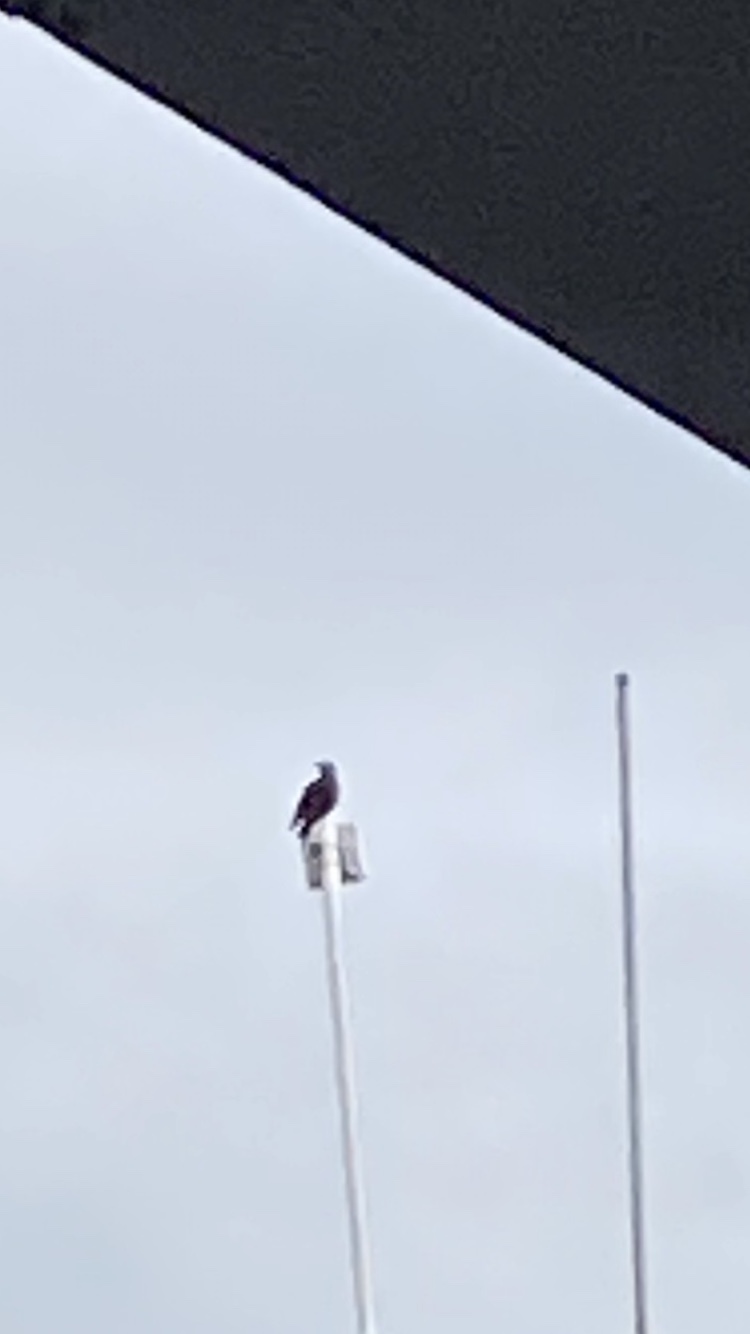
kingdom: Animalia
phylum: Chordata
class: Aves
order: Passeriformes
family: Sturnidae
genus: Sturnus
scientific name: Sturnus vulgaris
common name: Common starling
